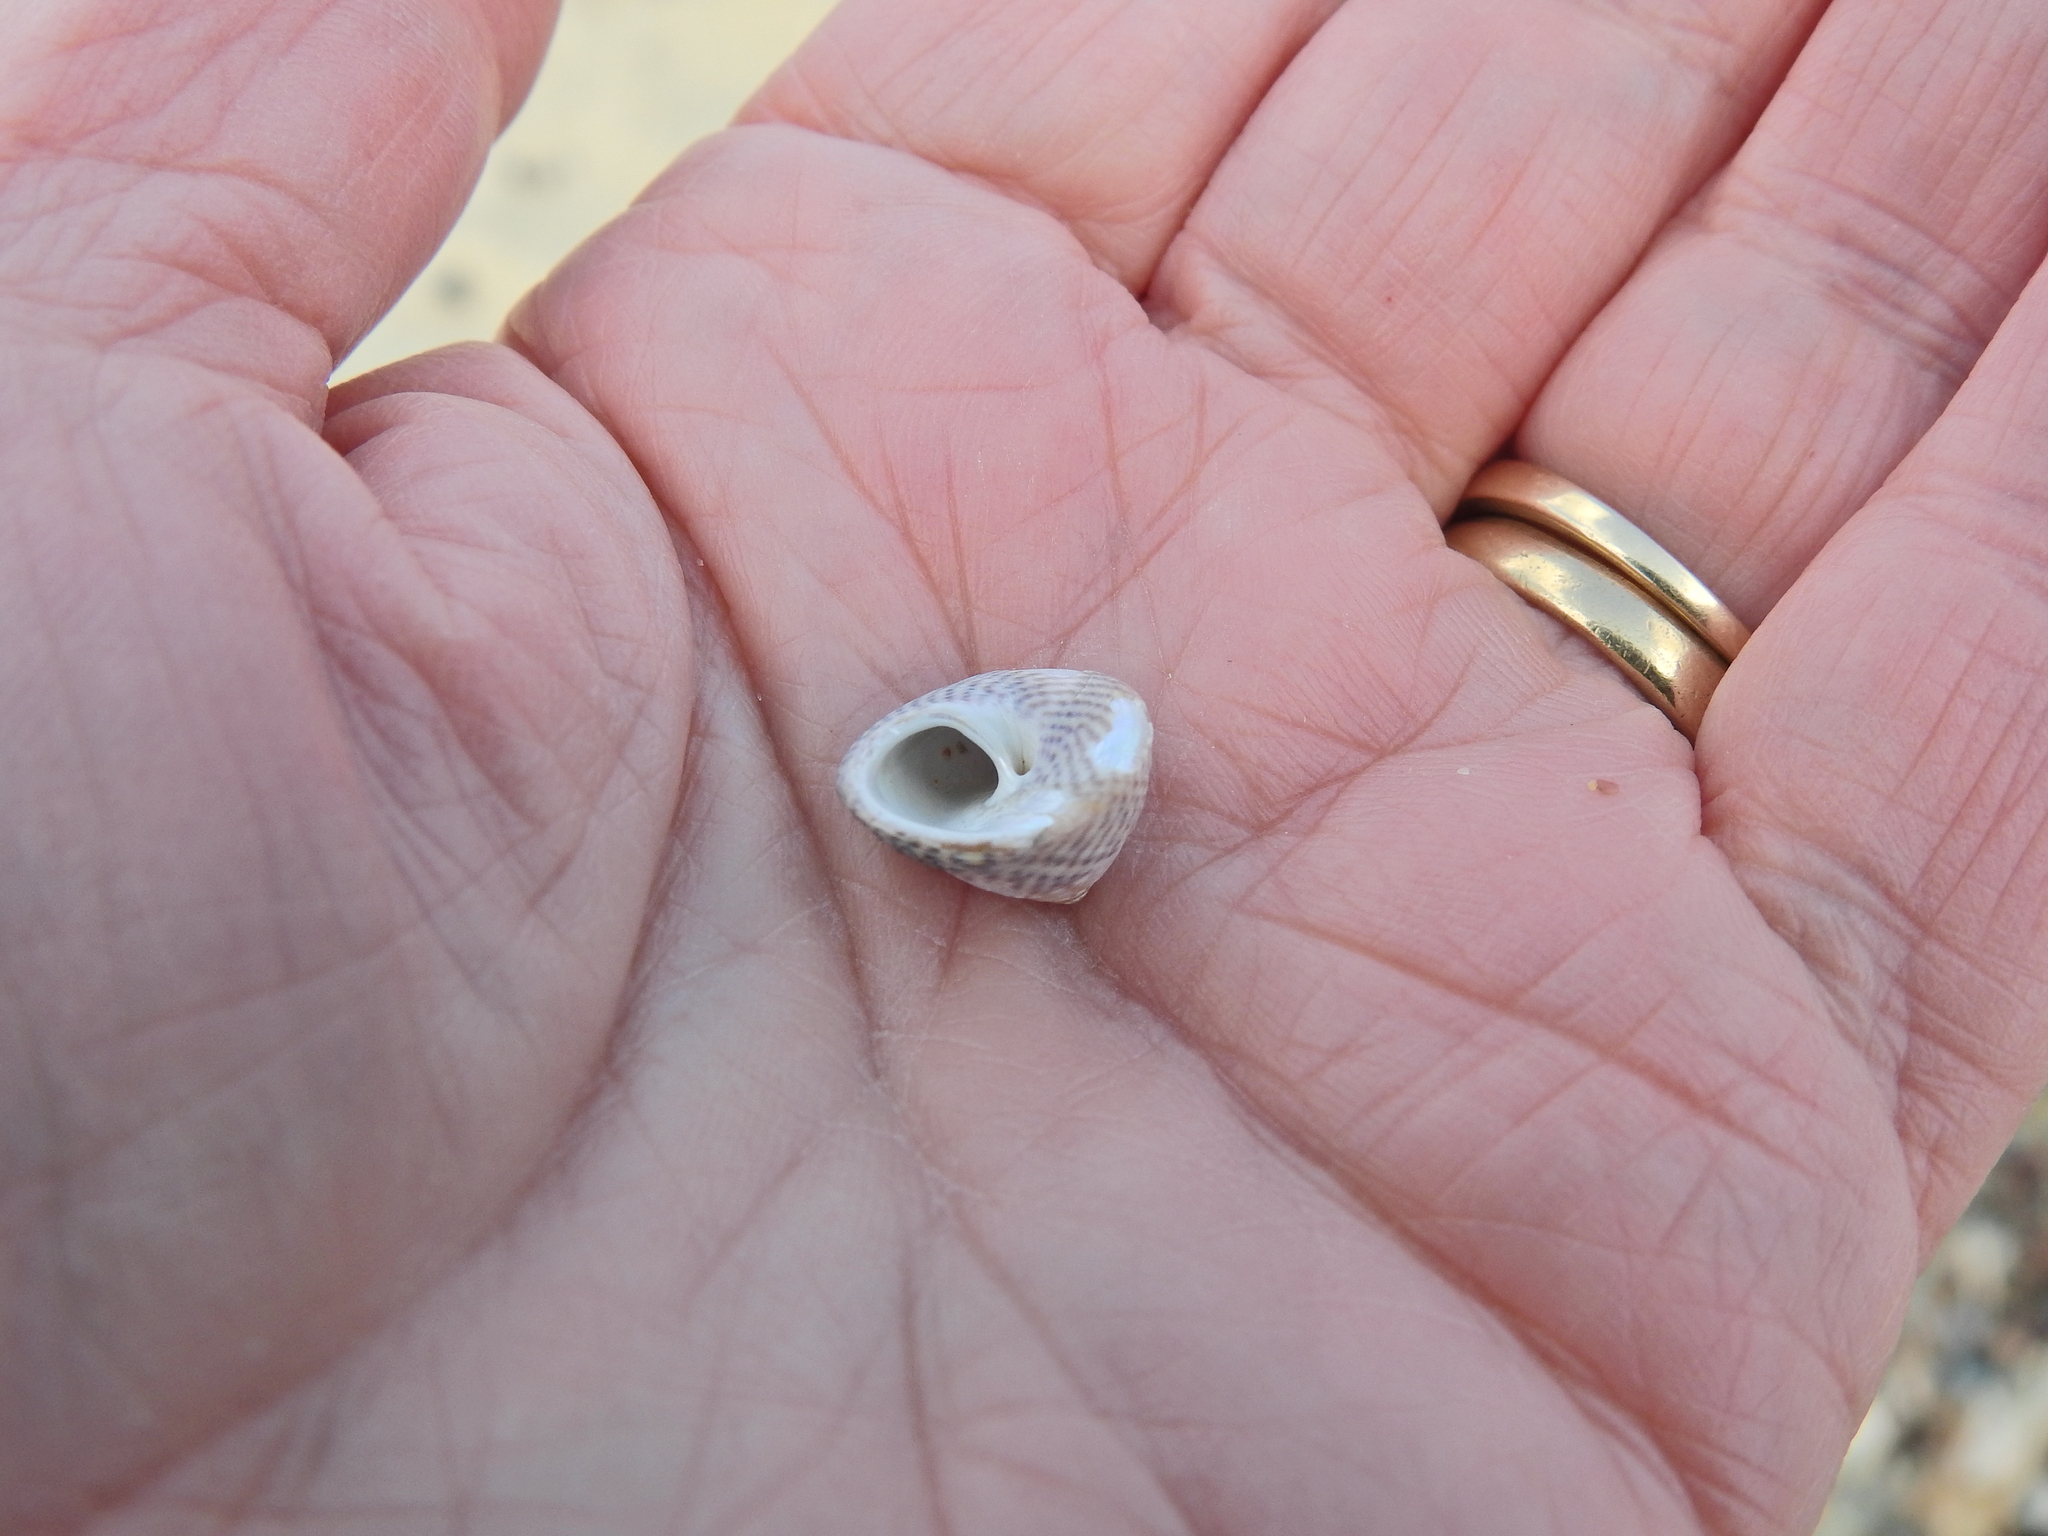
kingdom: Animalia
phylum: Mollusca
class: Gastropoda
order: Trochida
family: Trochidae
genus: Steromphala
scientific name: Steromphala cineraria
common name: Grey top shell
